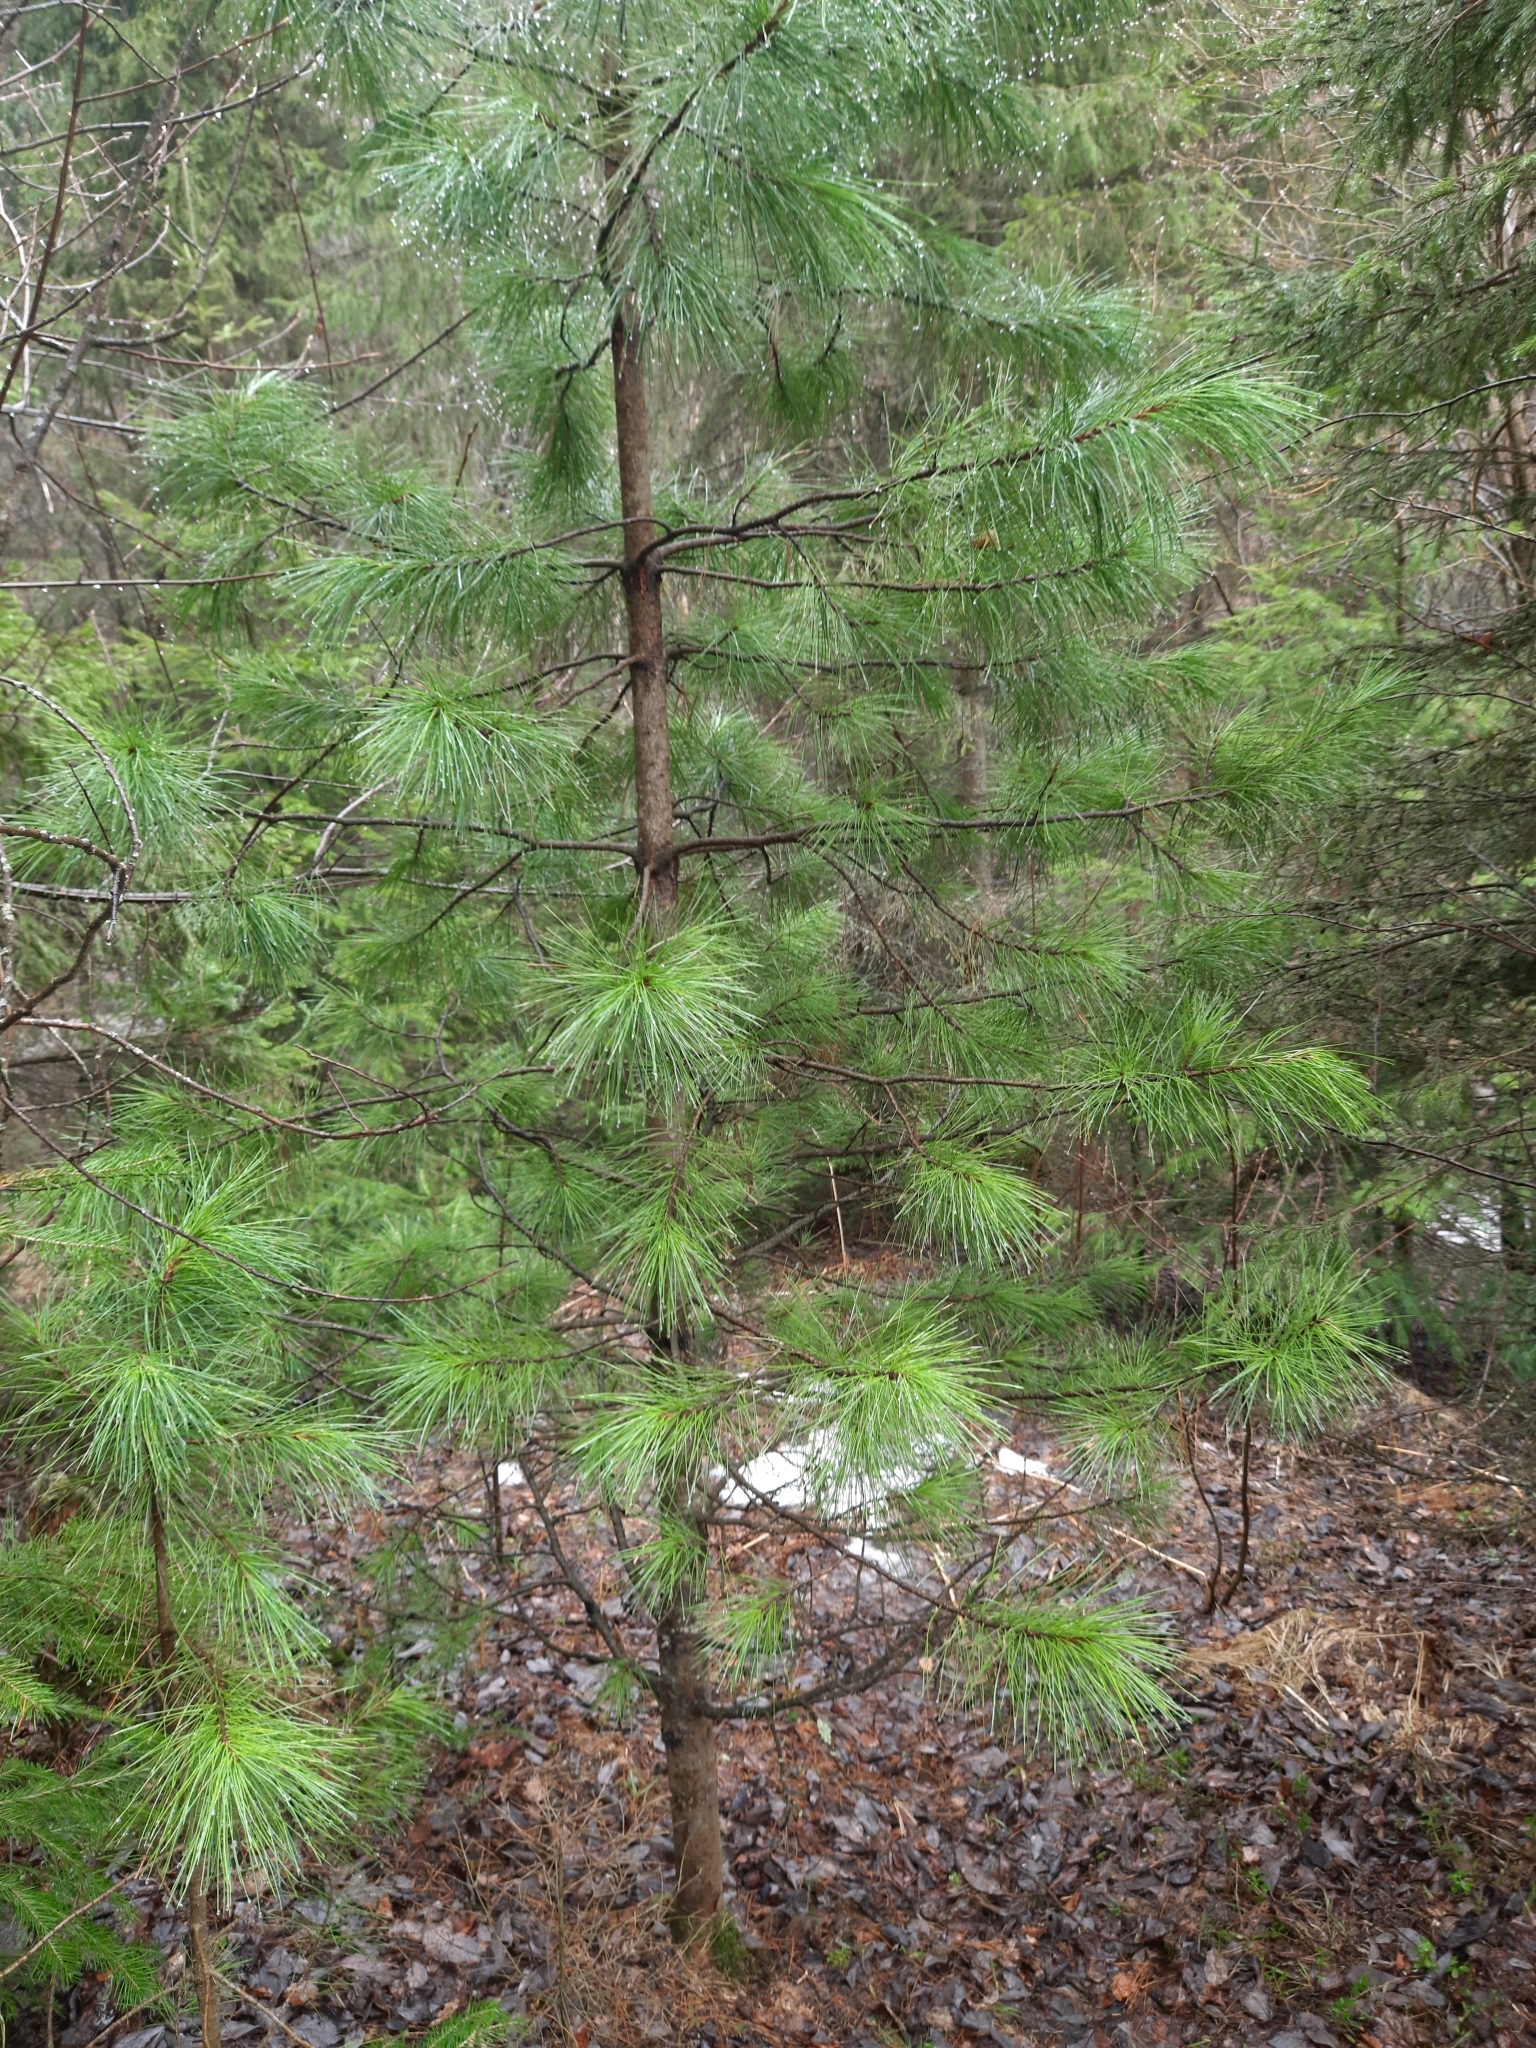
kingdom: Plantae
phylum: Tracheophyta
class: Pinopsida
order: Pinales
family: Pinaceae
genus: Pinus
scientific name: Pinus sibirica
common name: Siberian pine
